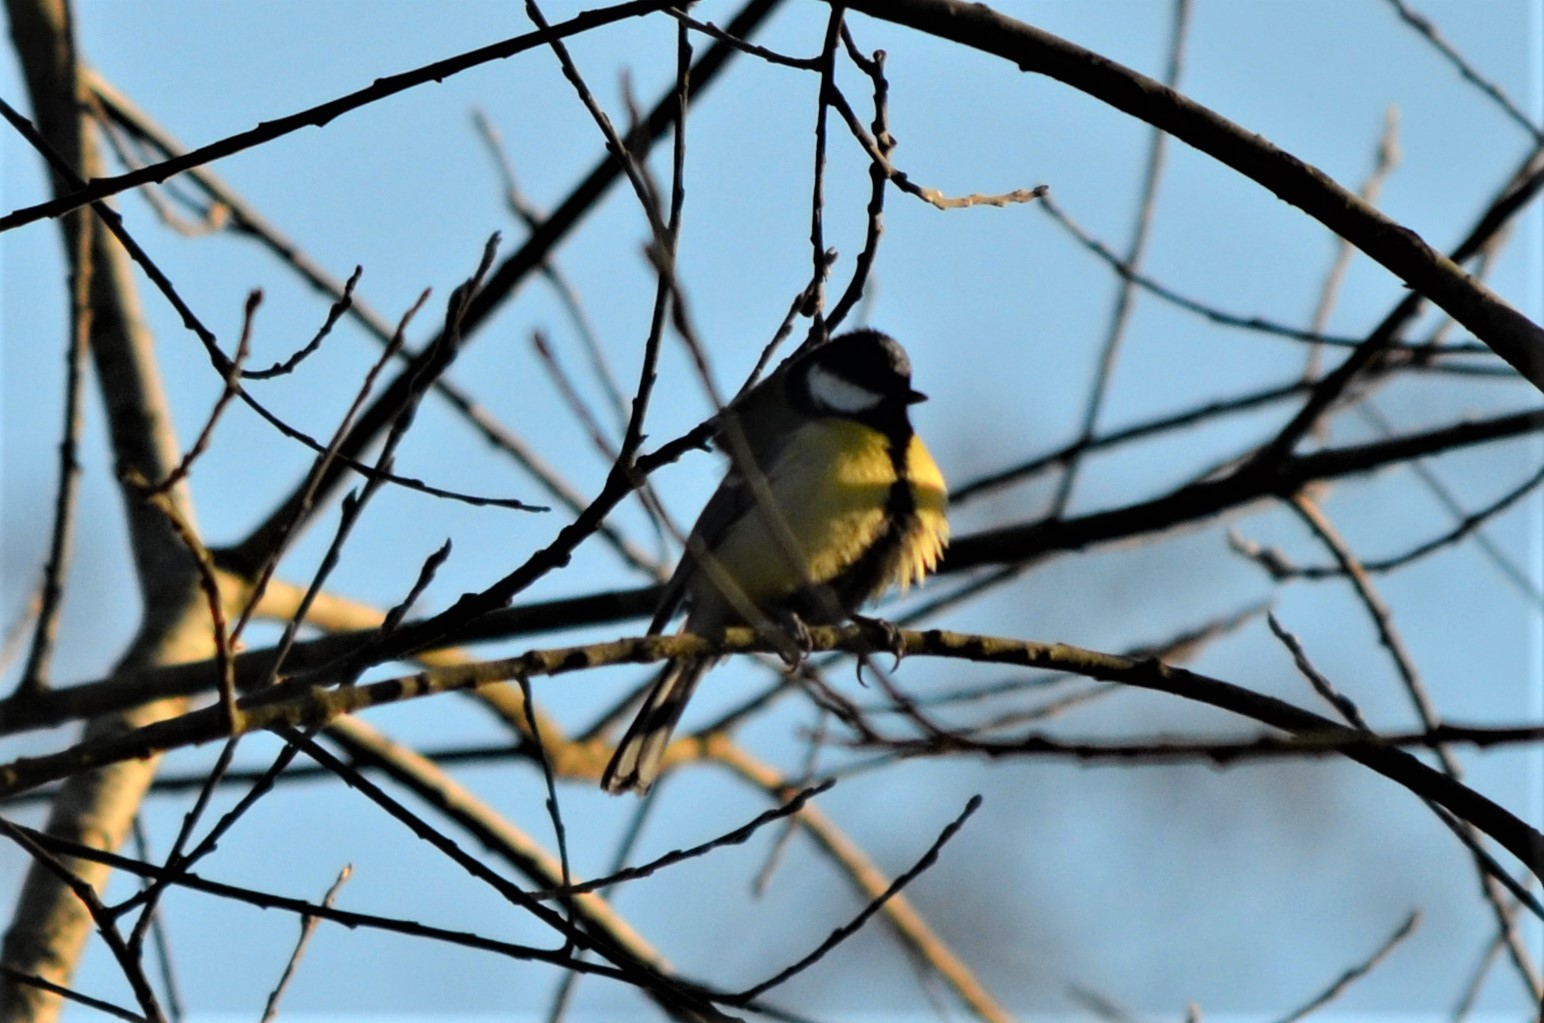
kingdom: Animalia
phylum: Chordata
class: Aves
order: Passeriformes
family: Paridae
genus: Parus
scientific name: Parus major
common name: Great tit
